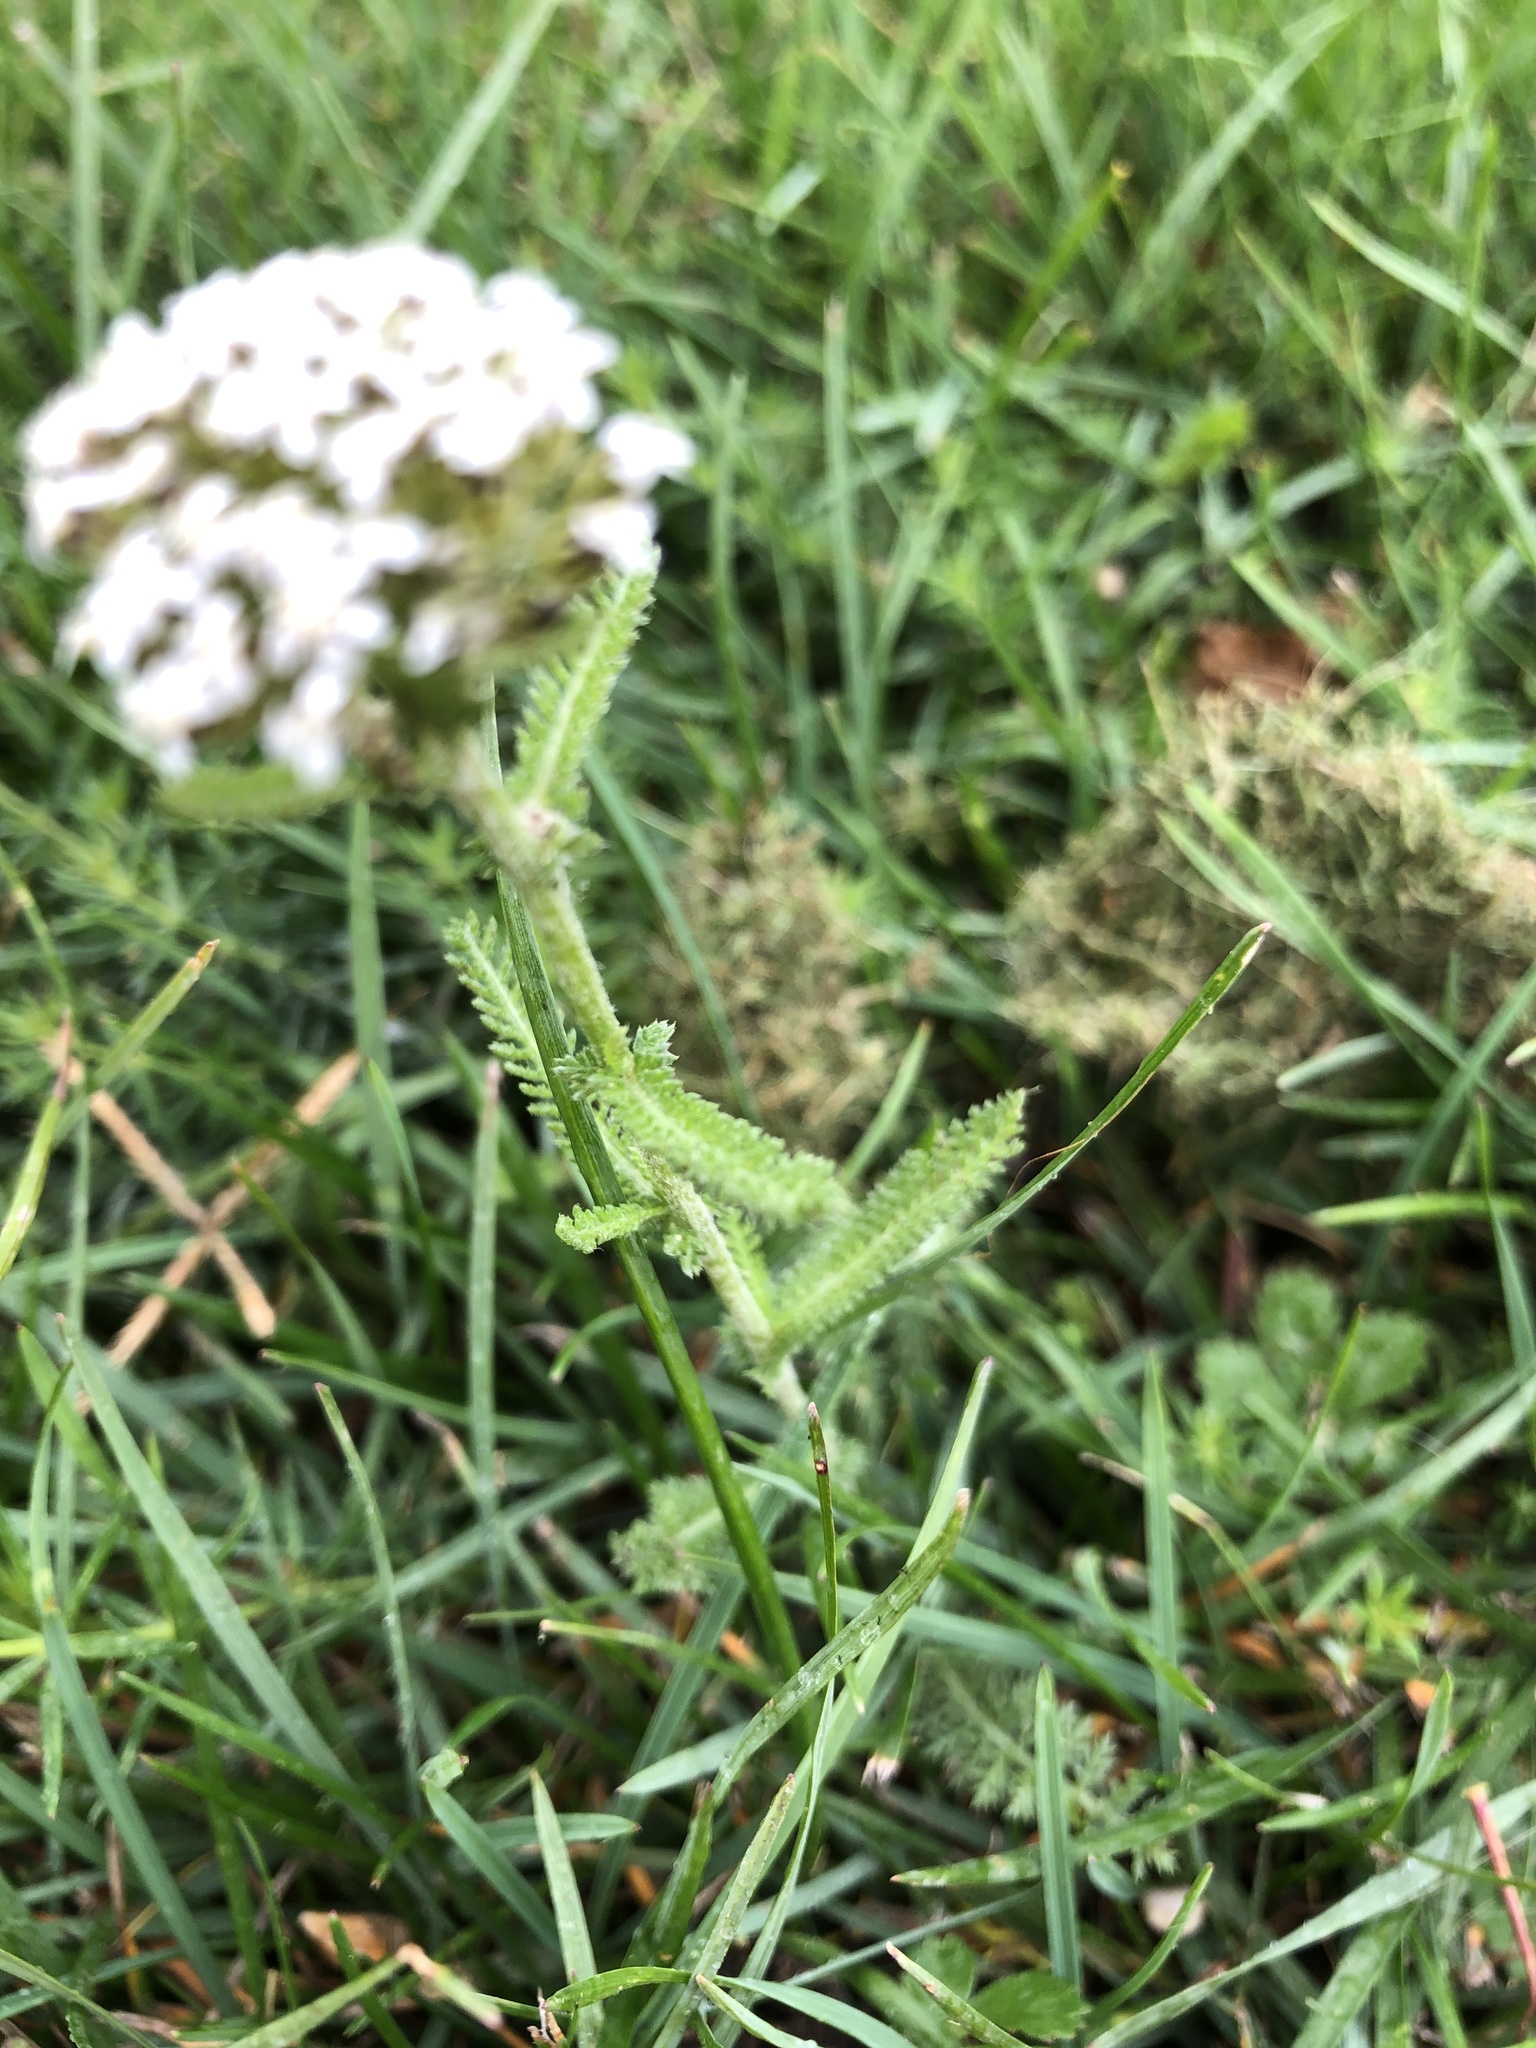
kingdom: Plantae
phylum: Tracheophyta
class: Magnoliopsida
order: Asterales
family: Asteraceae
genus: Achillea
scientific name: Achillea millefolium
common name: Yarrow
